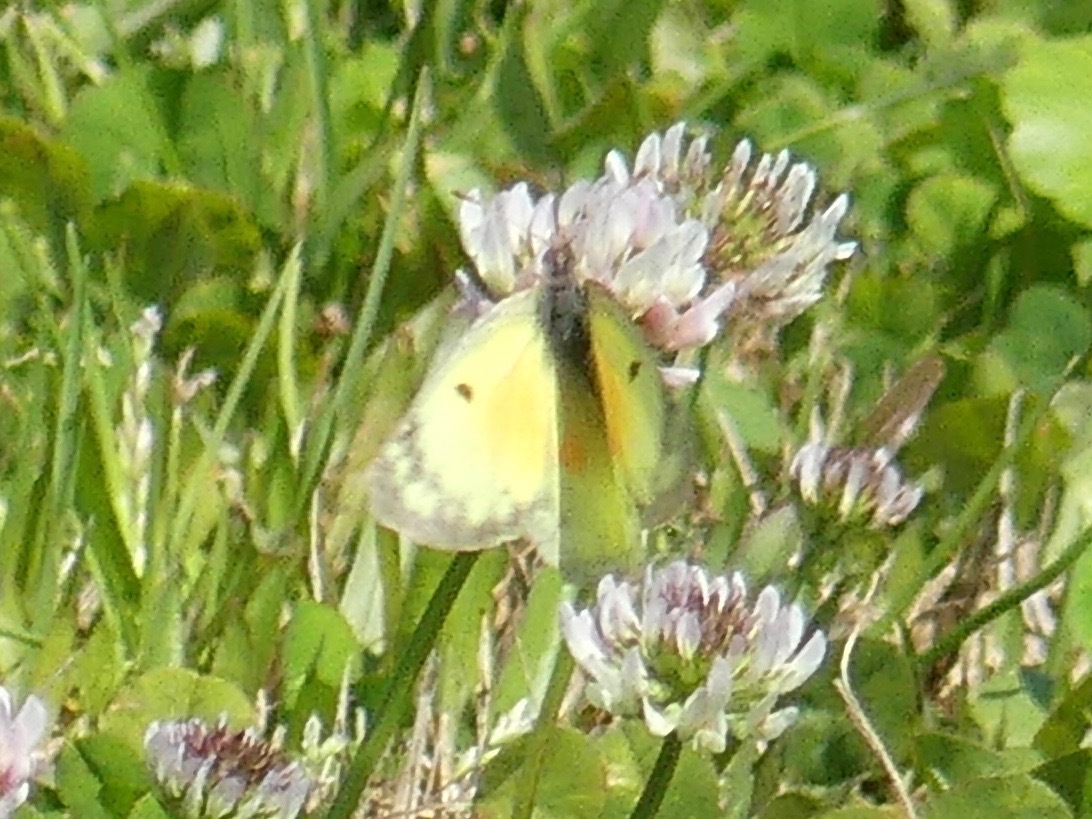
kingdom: Animalia
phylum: Arthropoda
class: Insecta
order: Lepidoptera
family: Pieridae
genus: Colias
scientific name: Colias eurytheme
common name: Alfalfa butterfly
